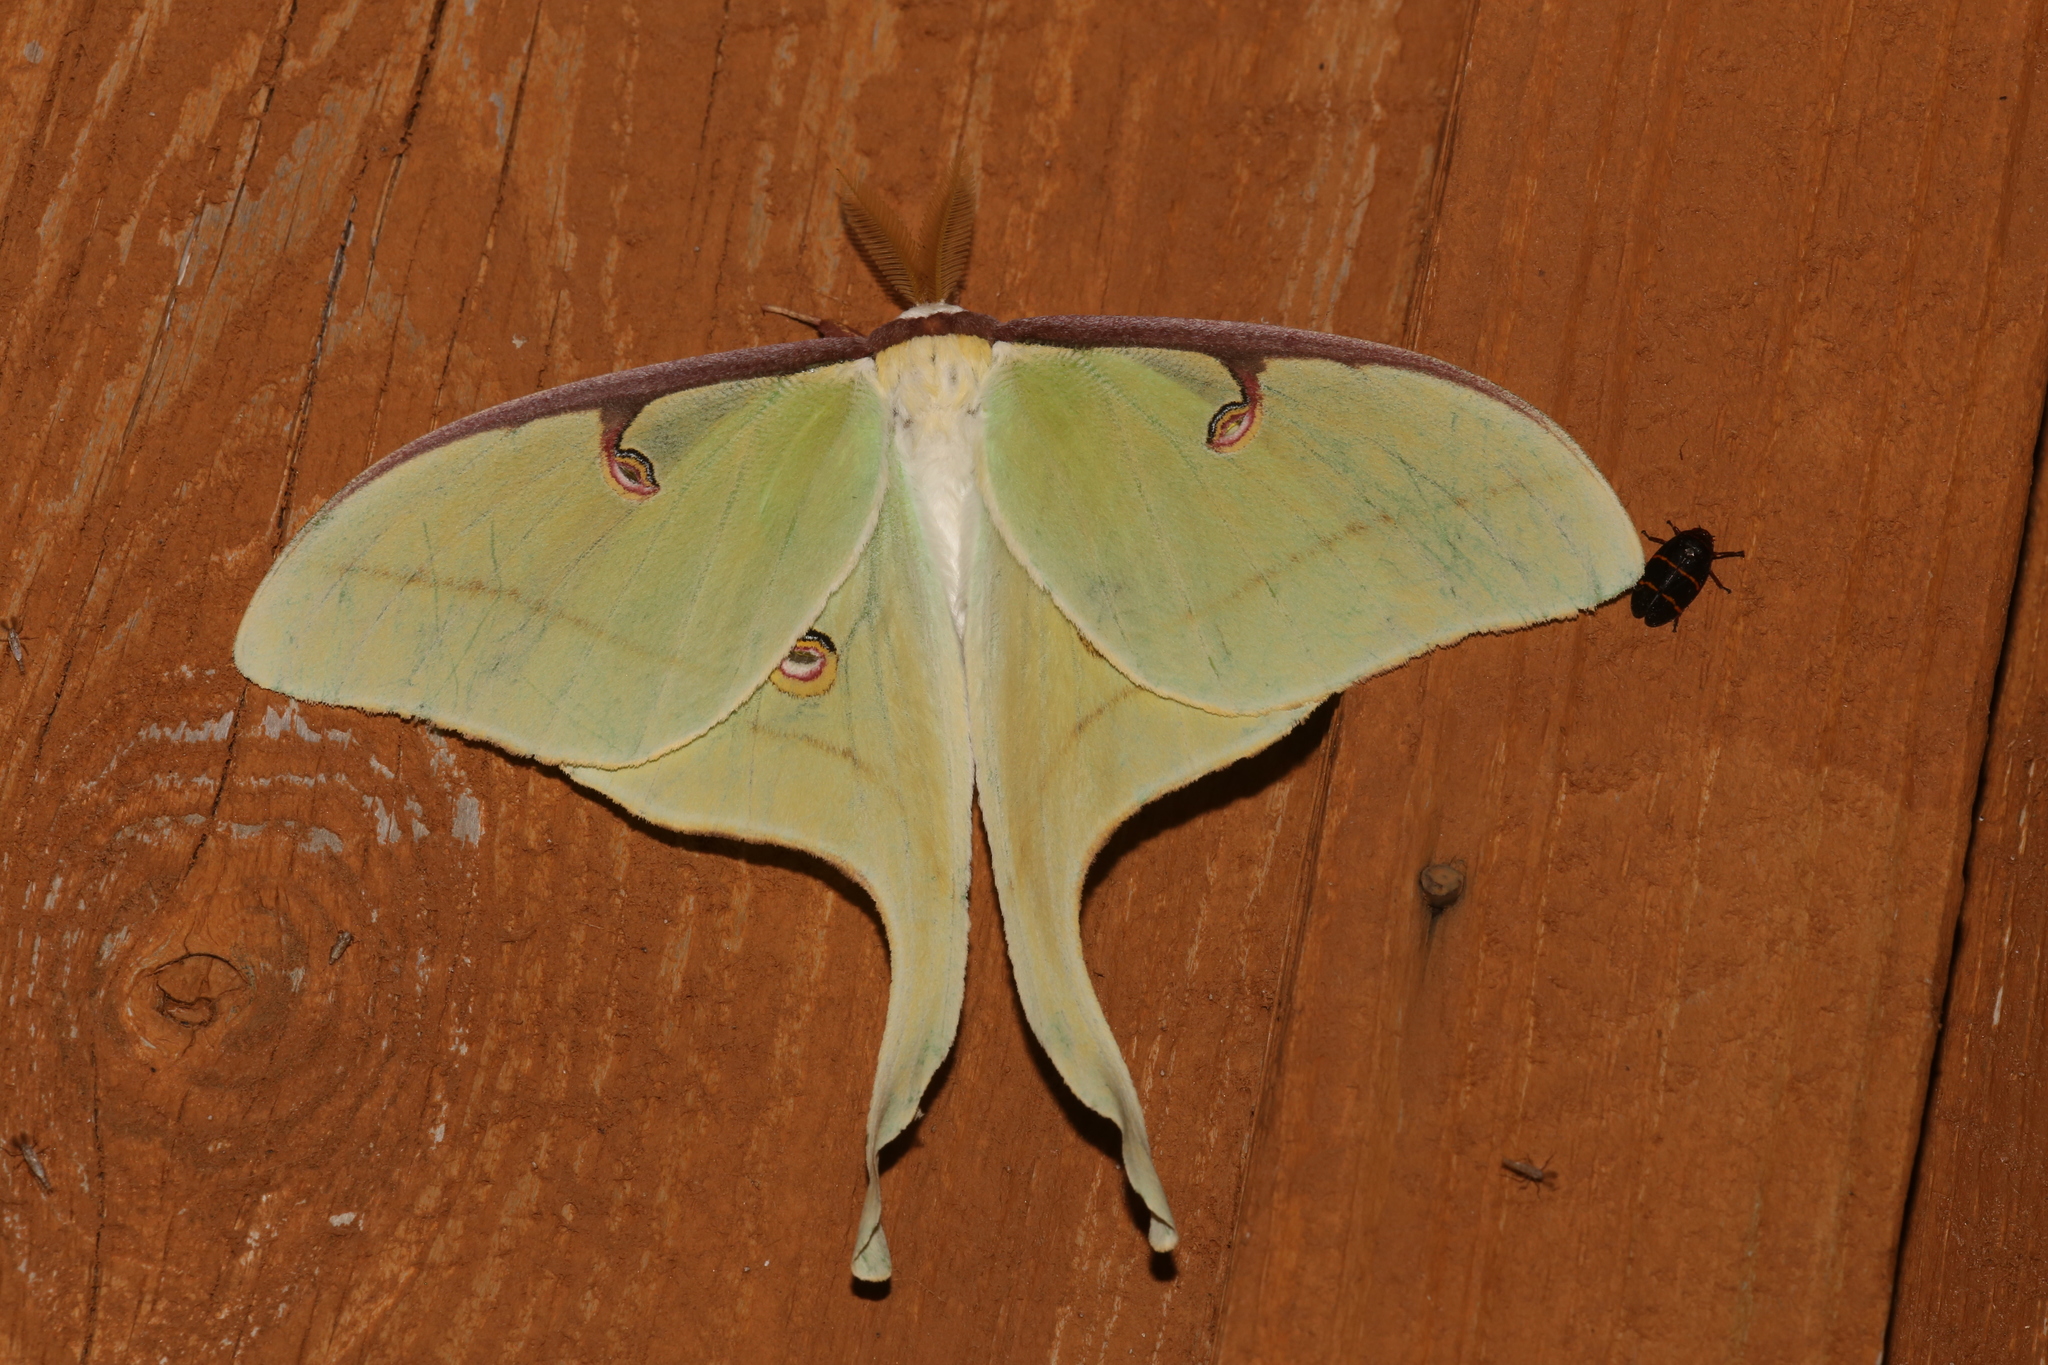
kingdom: Animalia
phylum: Arthropoda
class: Insecta
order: Lepidoptera
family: Saturniidae
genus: Actias
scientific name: Actias luna
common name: Luna moth
